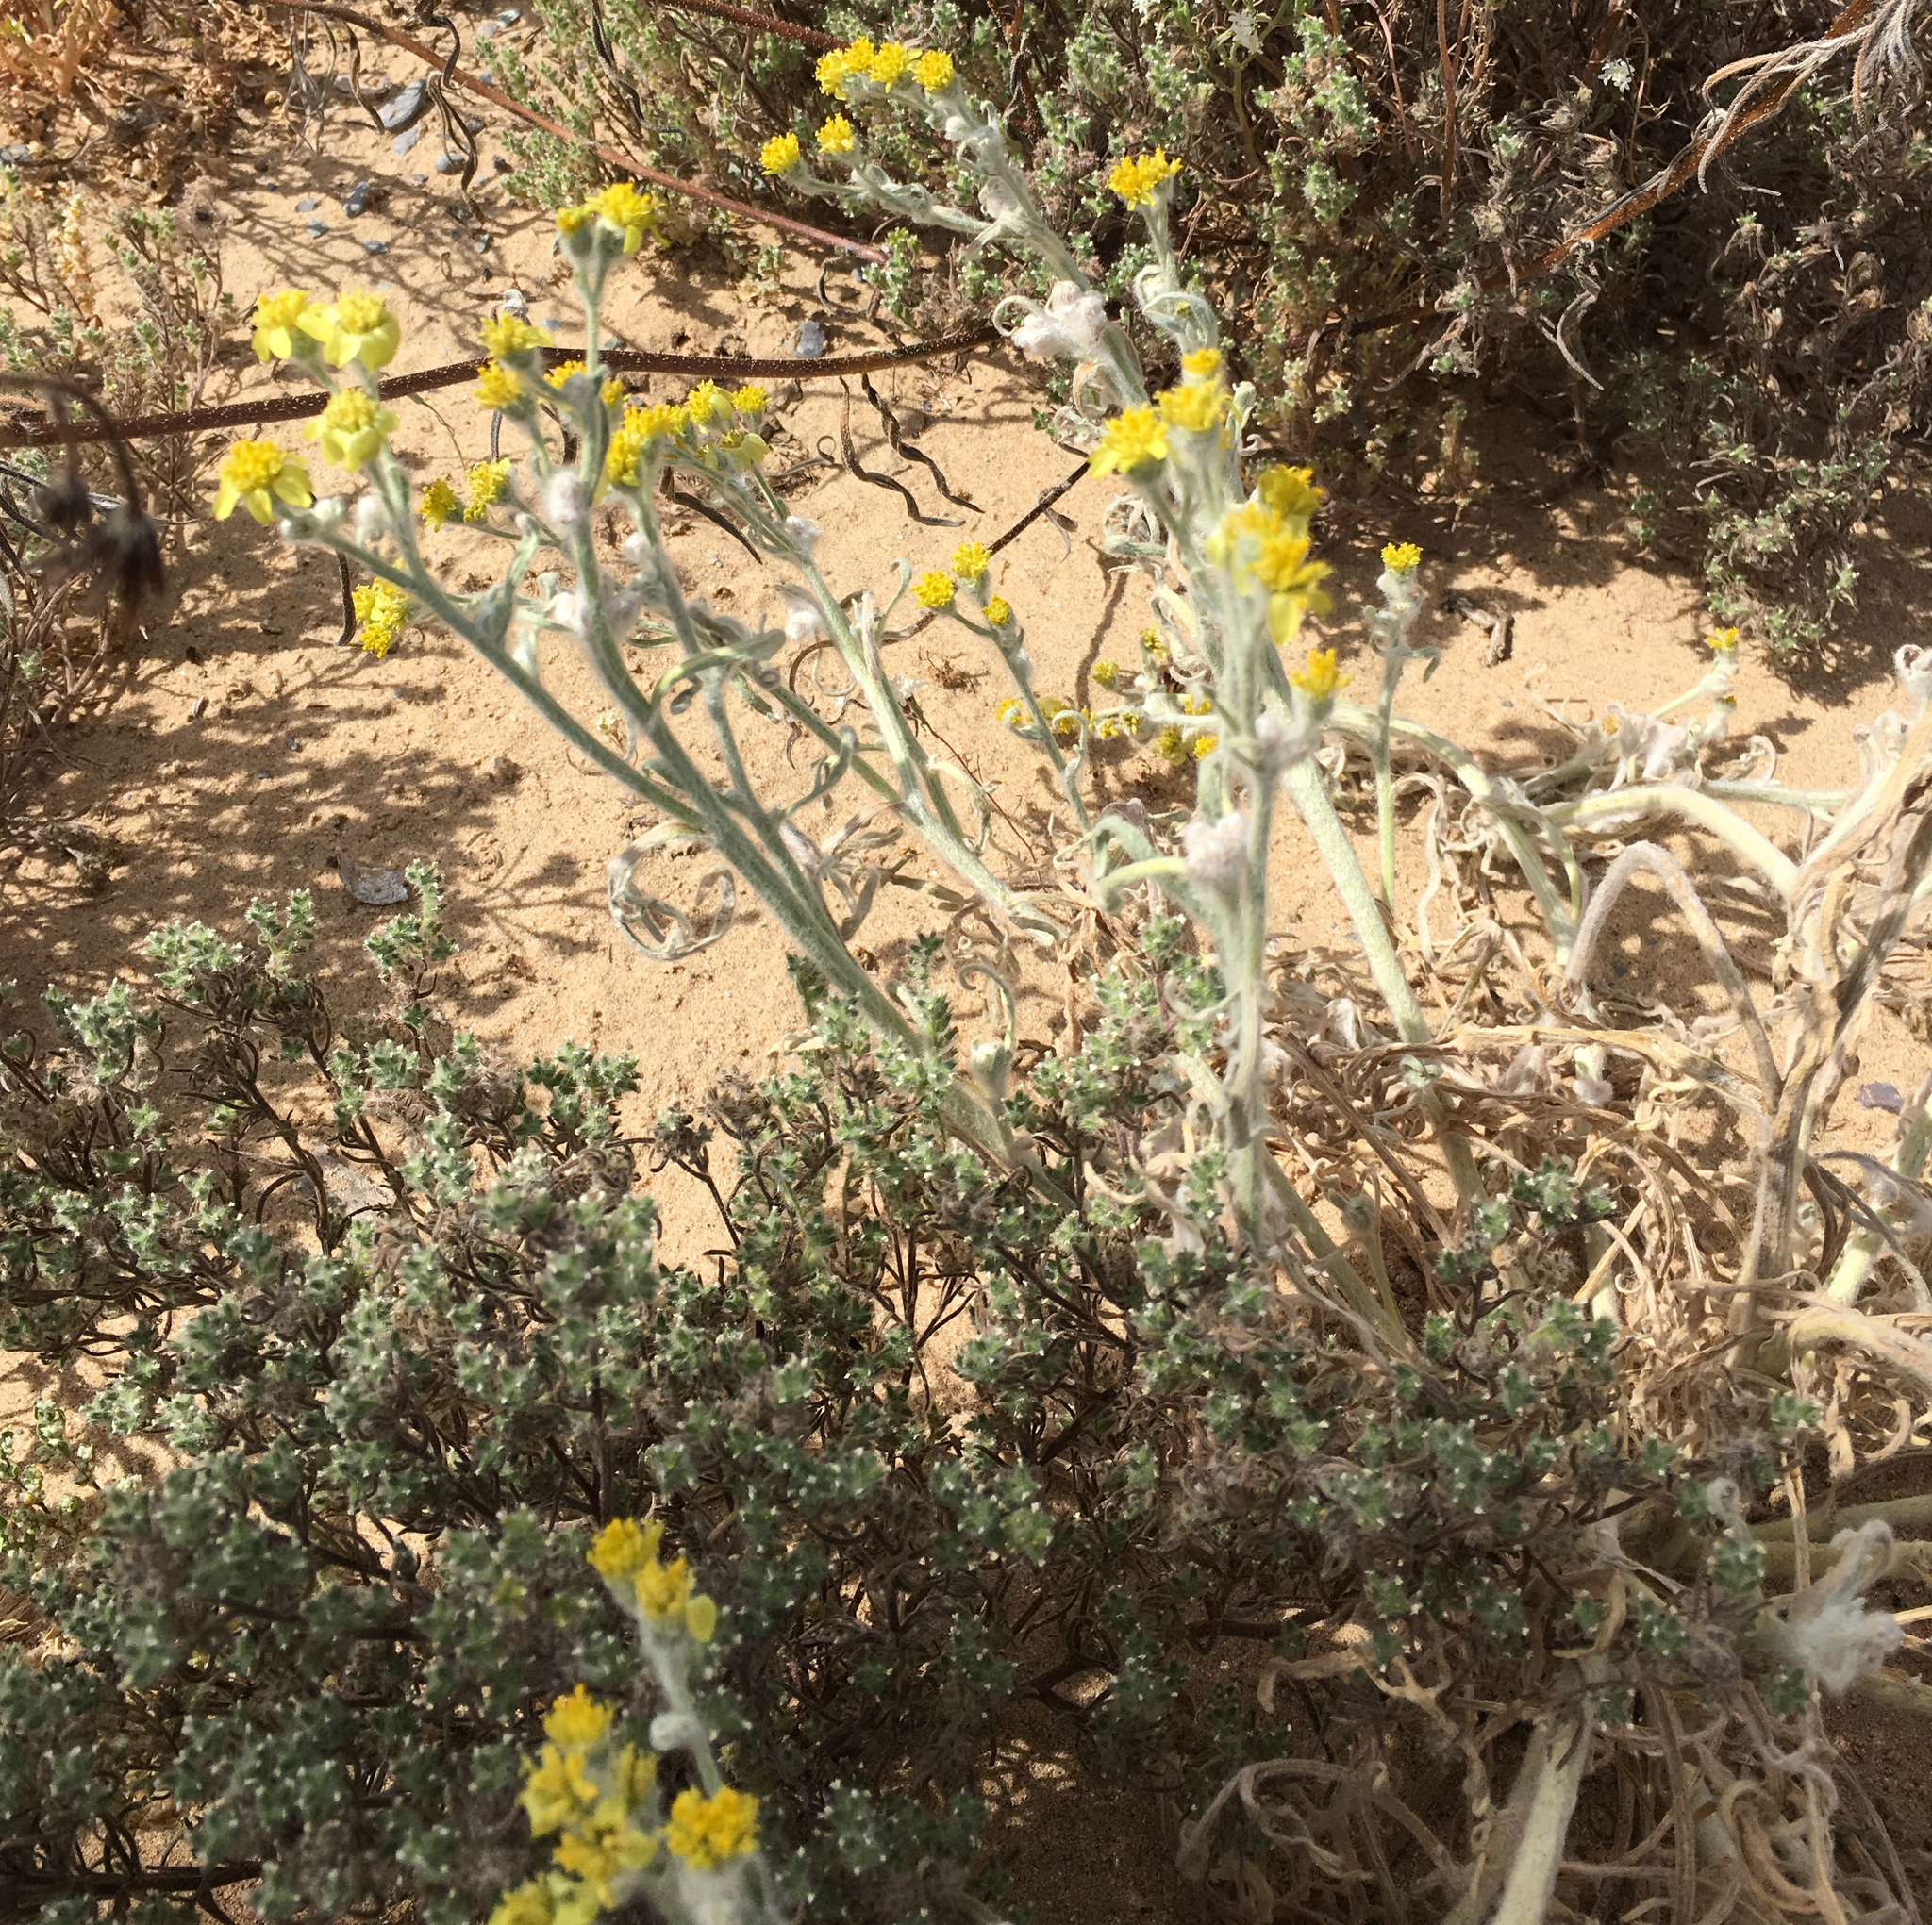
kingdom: Plantae
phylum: Tracheophyta
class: Magnoliopsida
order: Asterales
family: Asteraceae
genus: Baileya
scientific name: Baileya pauciradiata
